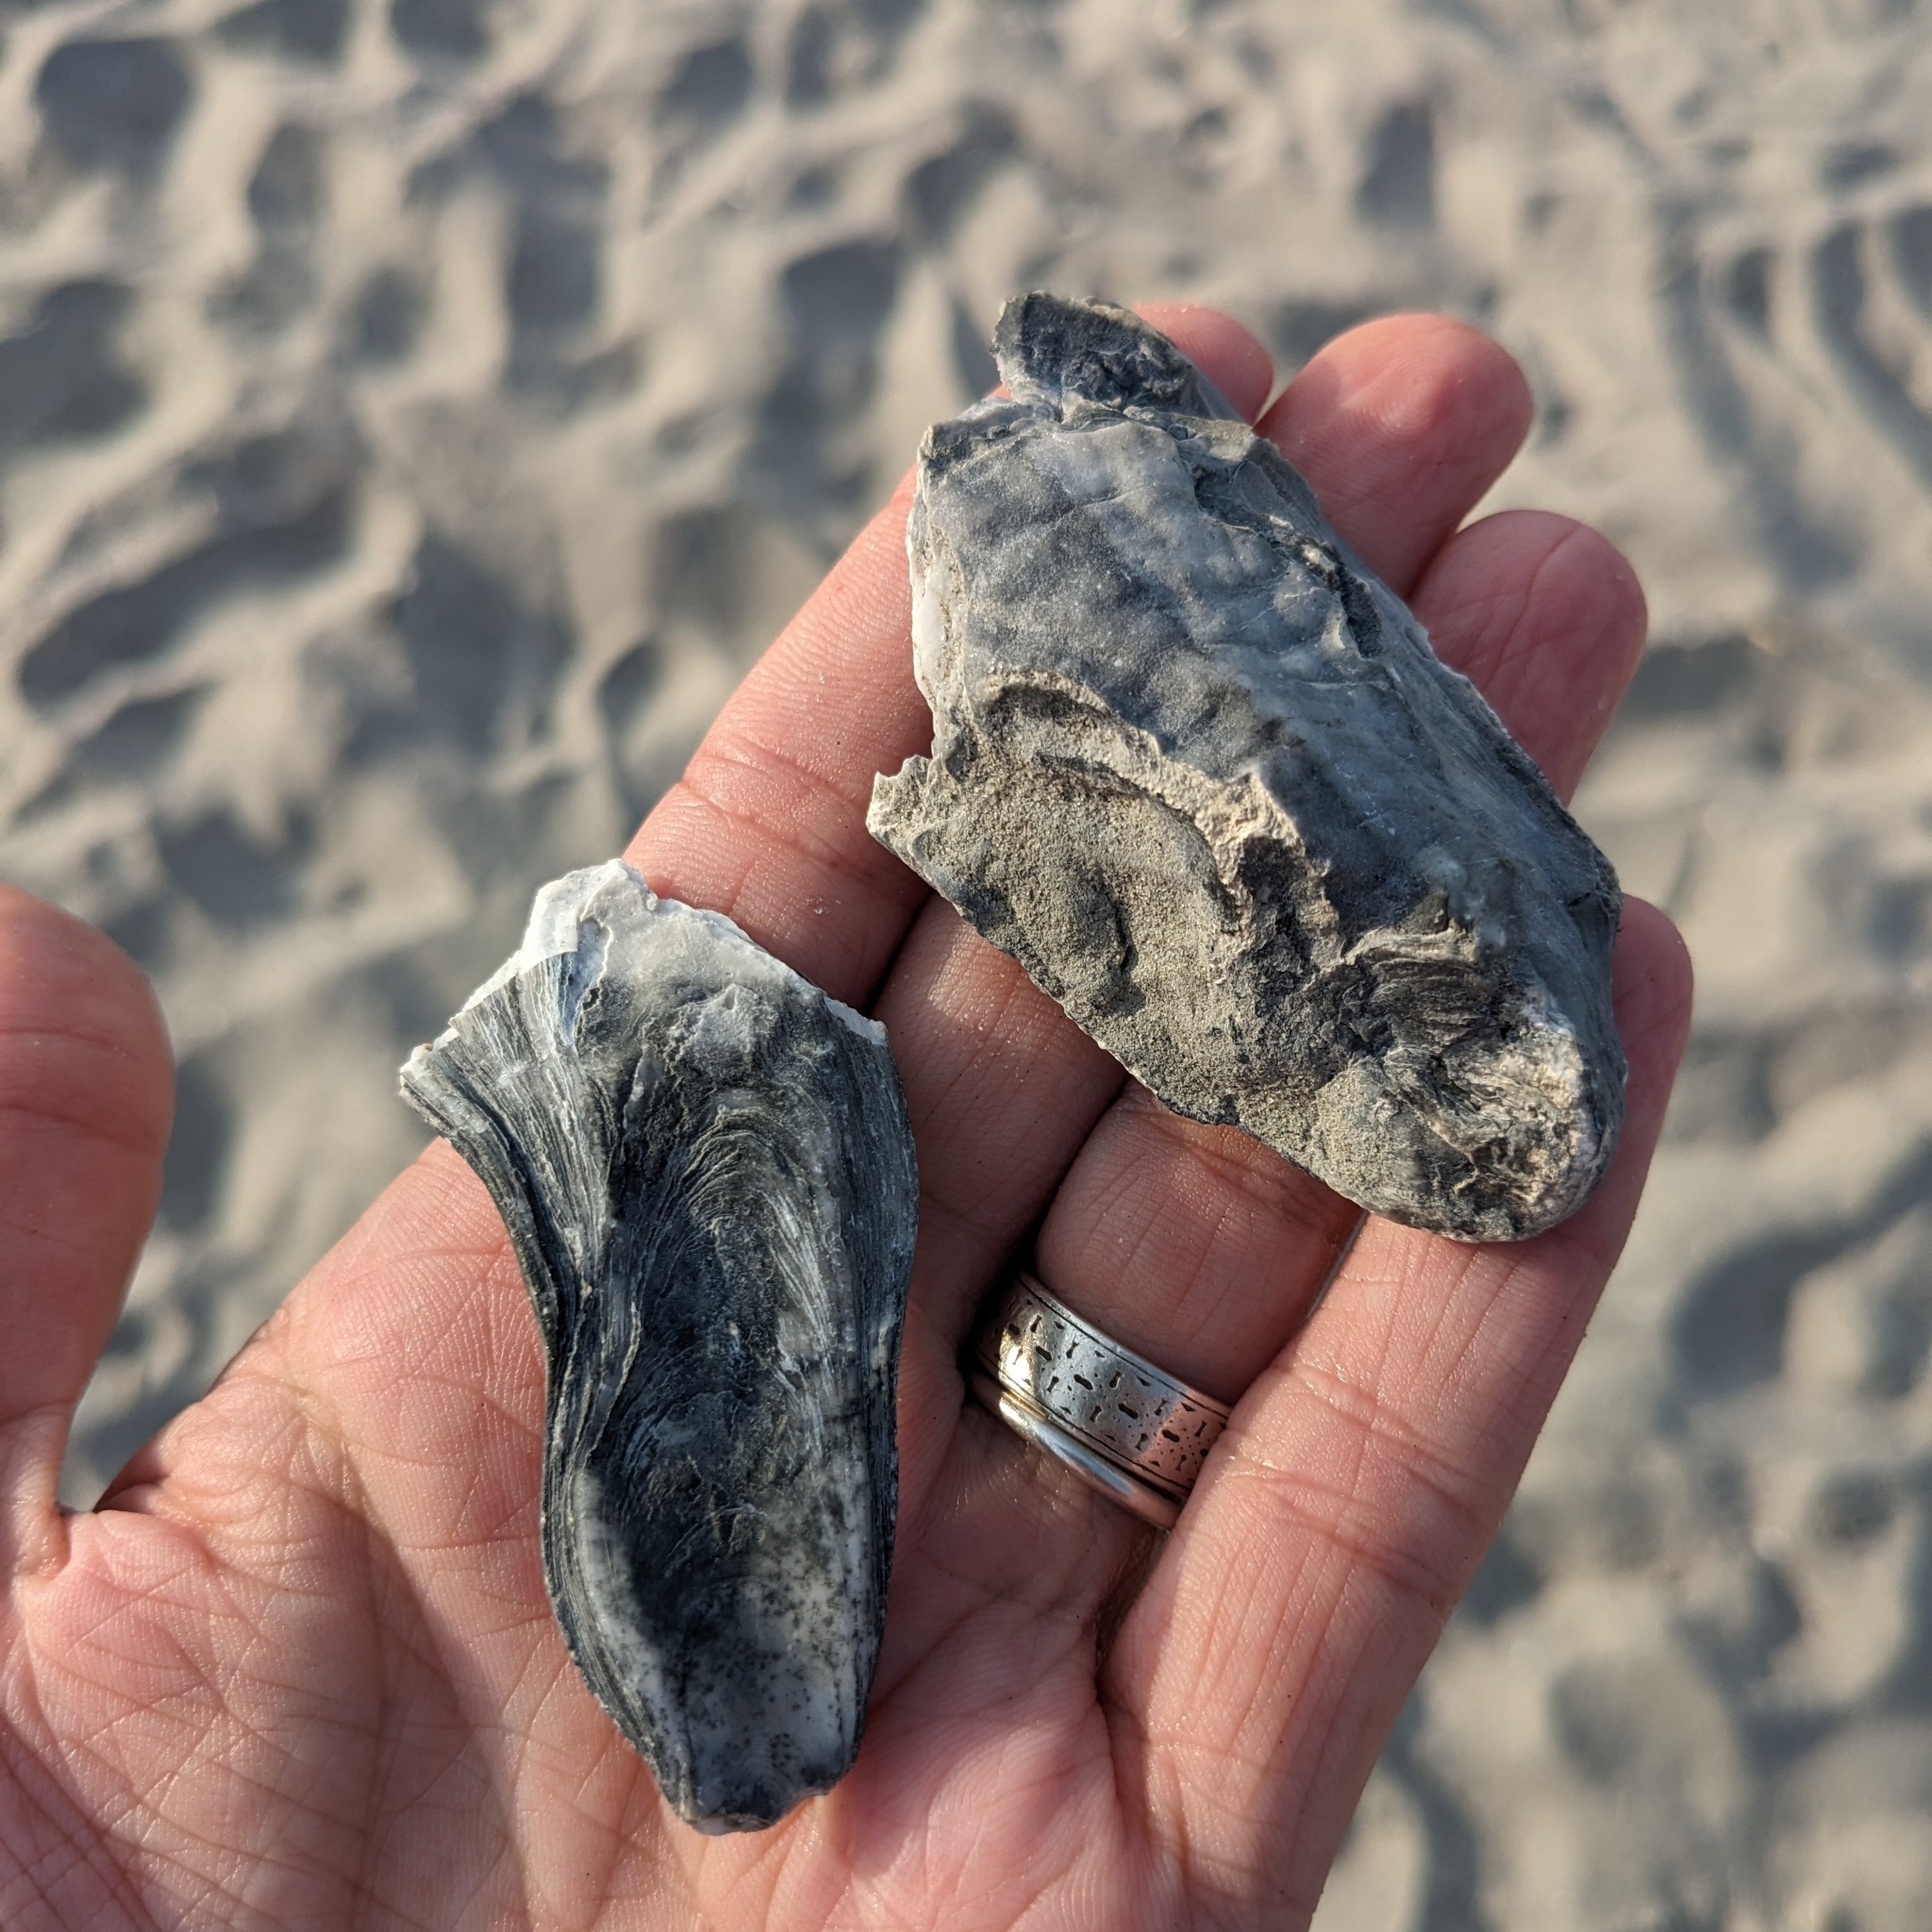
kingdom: Animalia
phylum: Mollusca
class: Bivalvia
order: Ostreida
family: Ostreidae
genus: Crassostrea
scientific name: Crassostrea virginica
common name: American oyster
